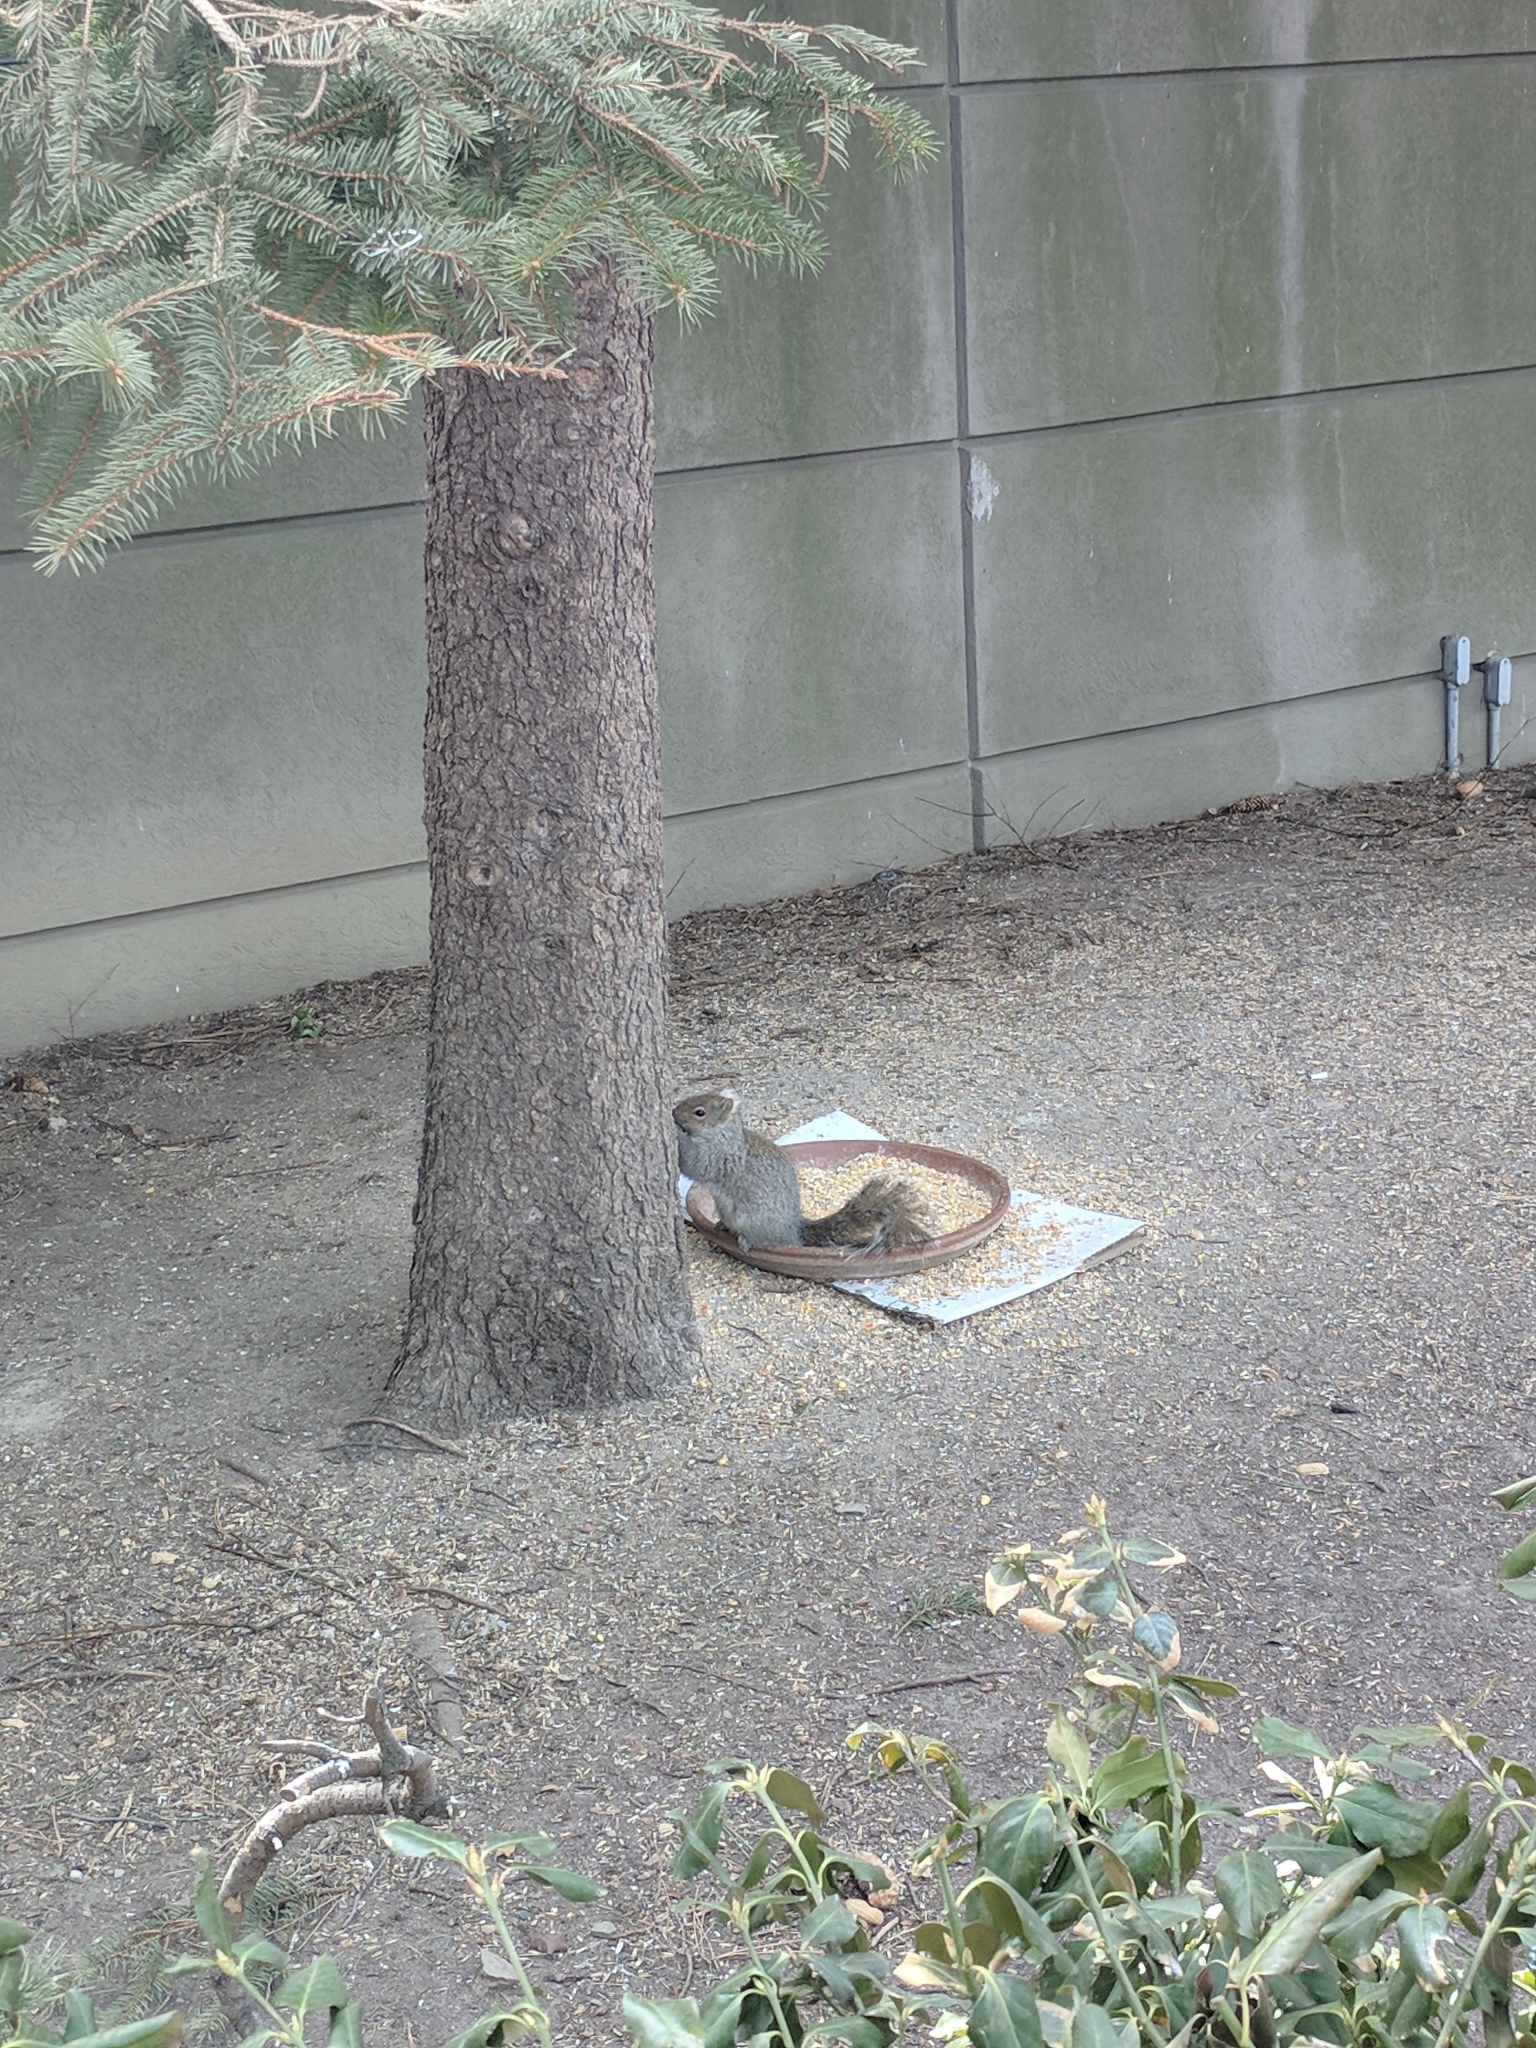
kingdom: Animalia
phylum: Chordata
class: Mammalia
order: Rodentia
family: Sciuridae
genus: Sciurus
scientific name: Sciurus carolinensis
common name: Eastern gray squirrel
